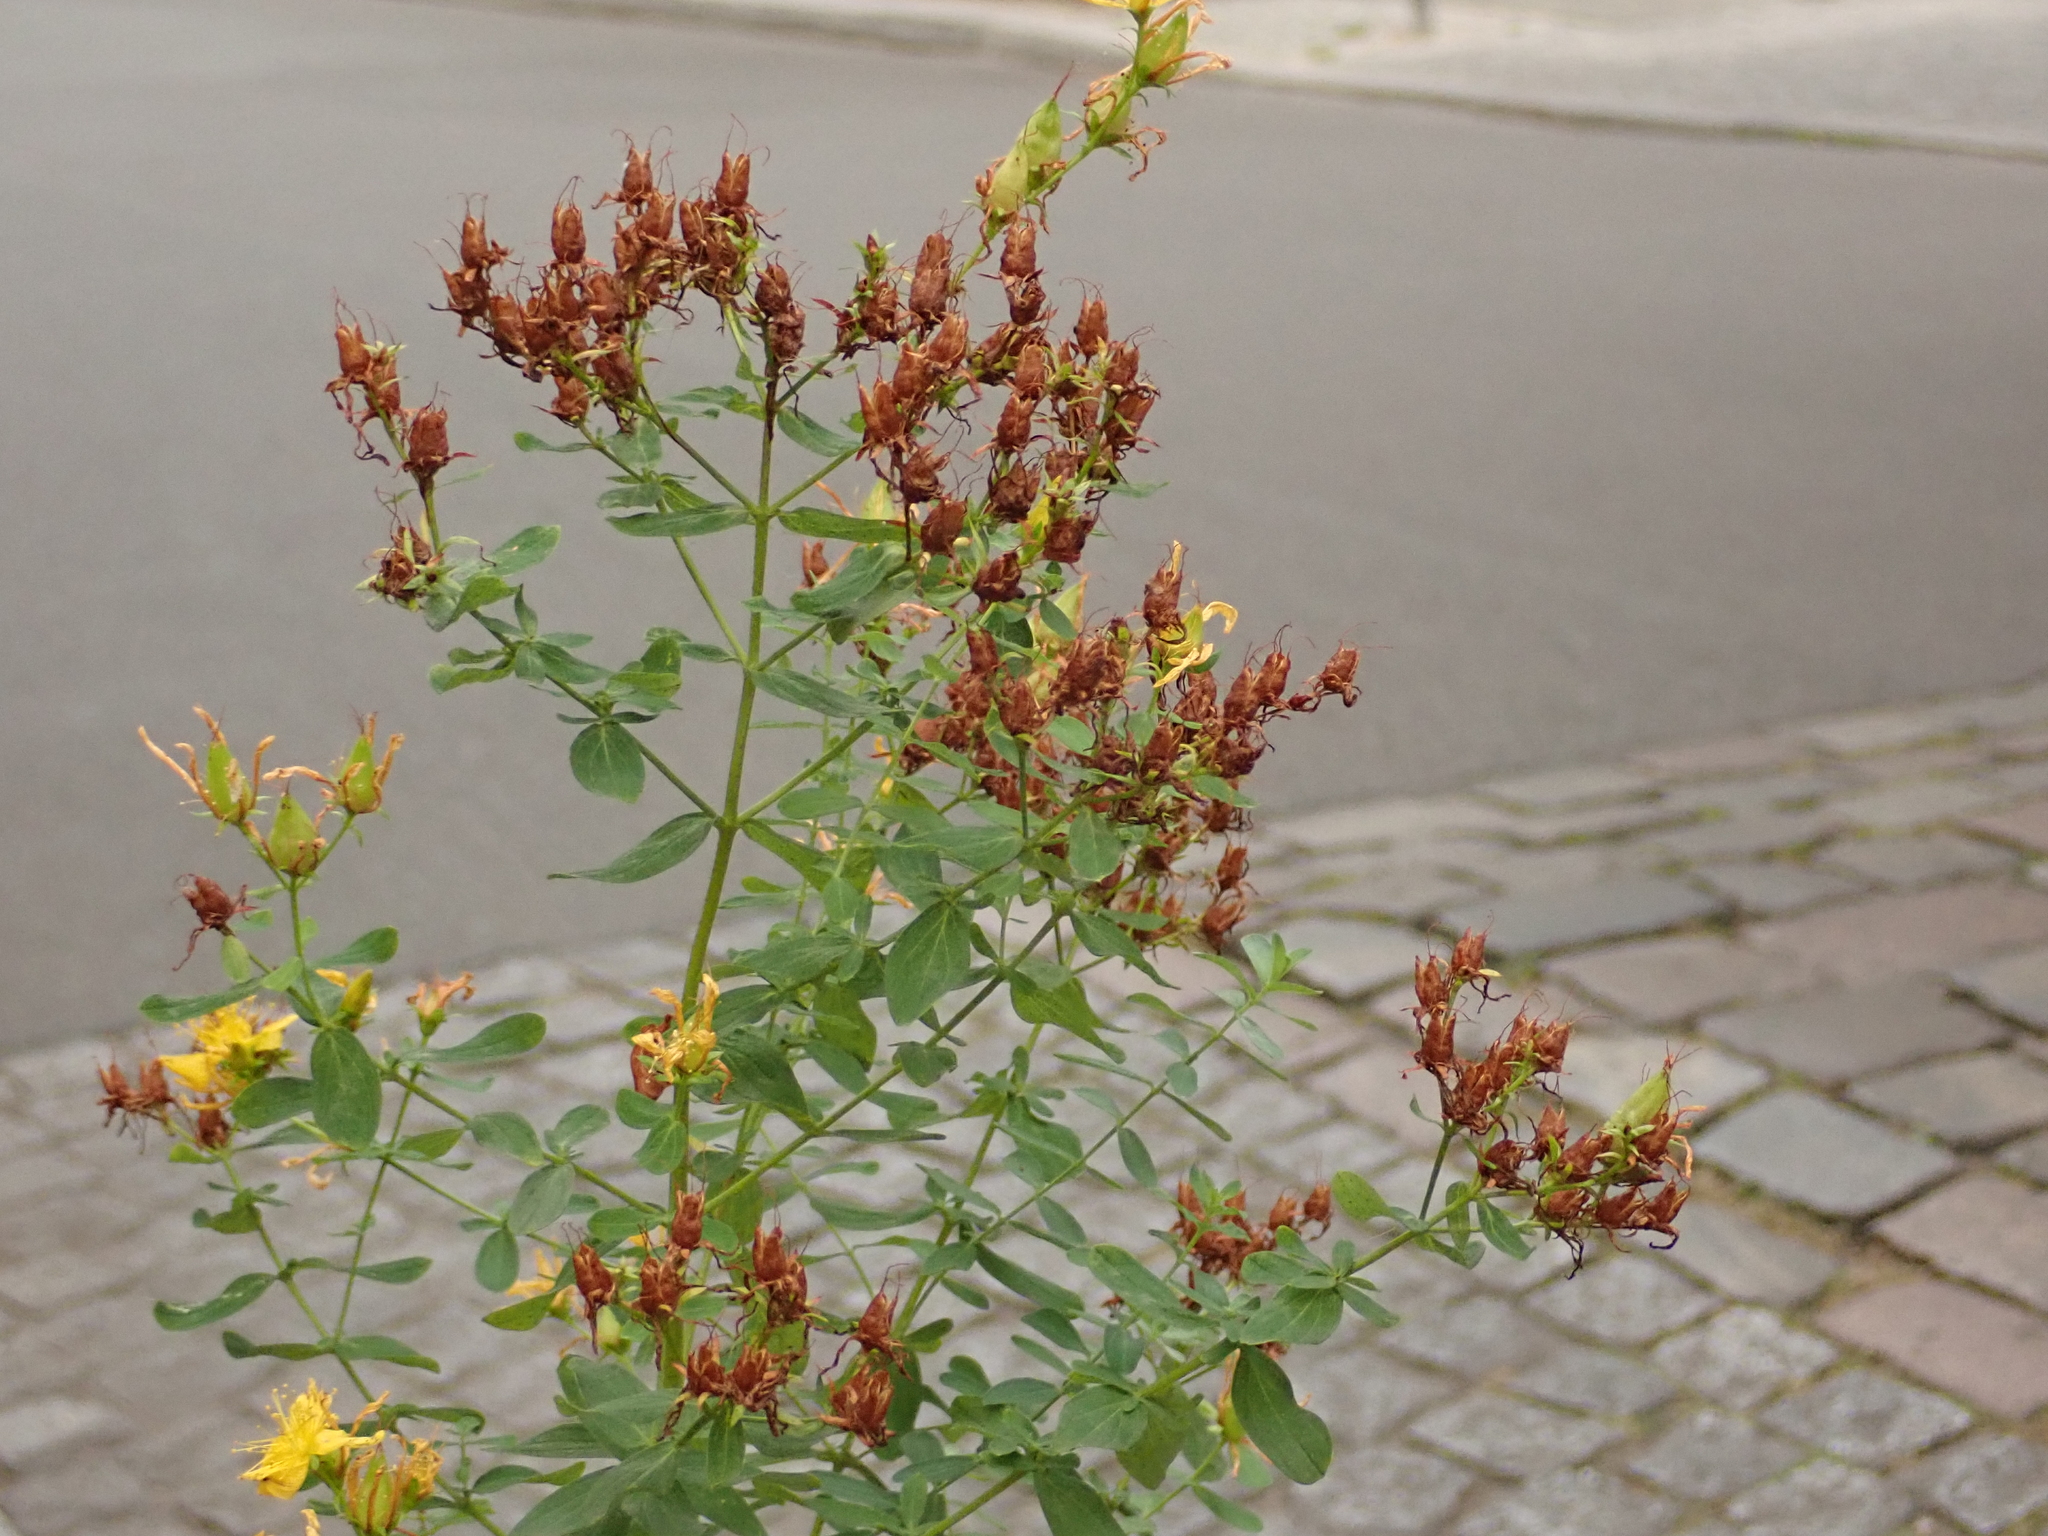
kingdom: Plantae
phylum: Tracheophyta
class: Magnoliopsida
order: Malpighiales
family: Hypericaceae
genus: Hypericum
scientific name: Hypericum perforatum
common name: Common st. johnswort
